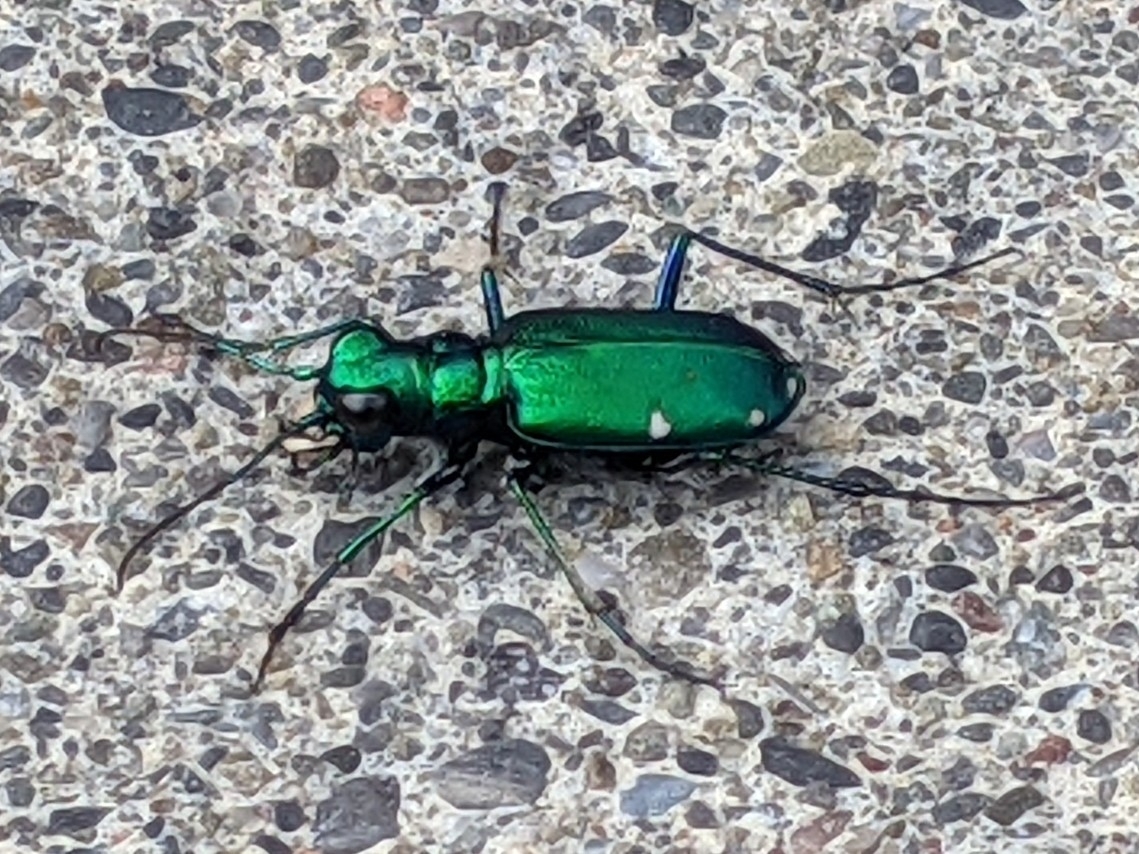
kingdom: Animalia
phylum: Arthropoda
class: Insecta
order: Coleoptera
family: Carabidae
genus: Cicindela
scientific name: Cicindela sexguttata
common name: Six-spotted tiger beetle
